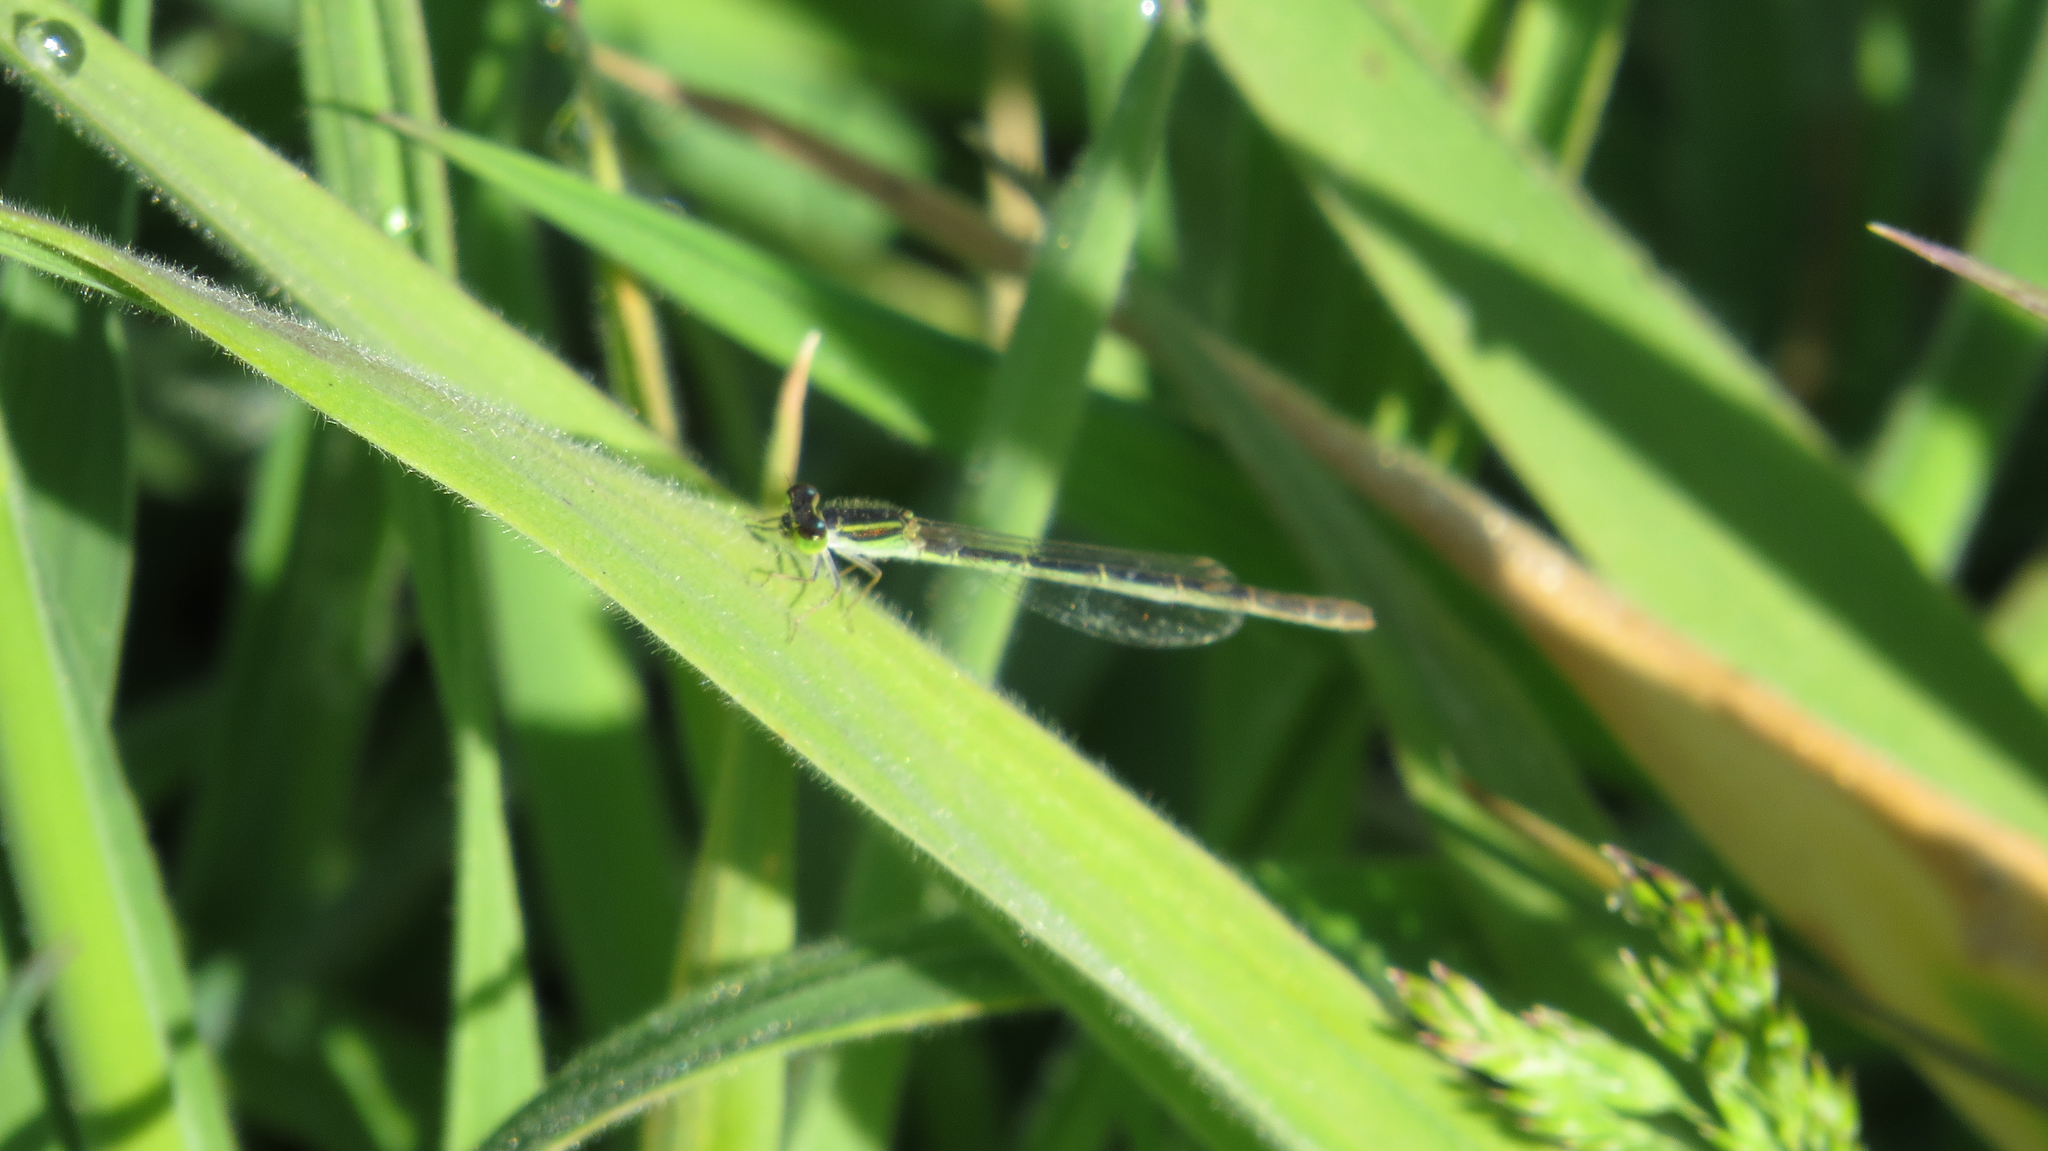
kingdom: Animalia
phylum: Arthropoda
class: Insecta
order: Odonata
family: Coenagrionidae
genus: Ischnura
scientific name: Ischnura aurora
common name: Gossamer damselfly
